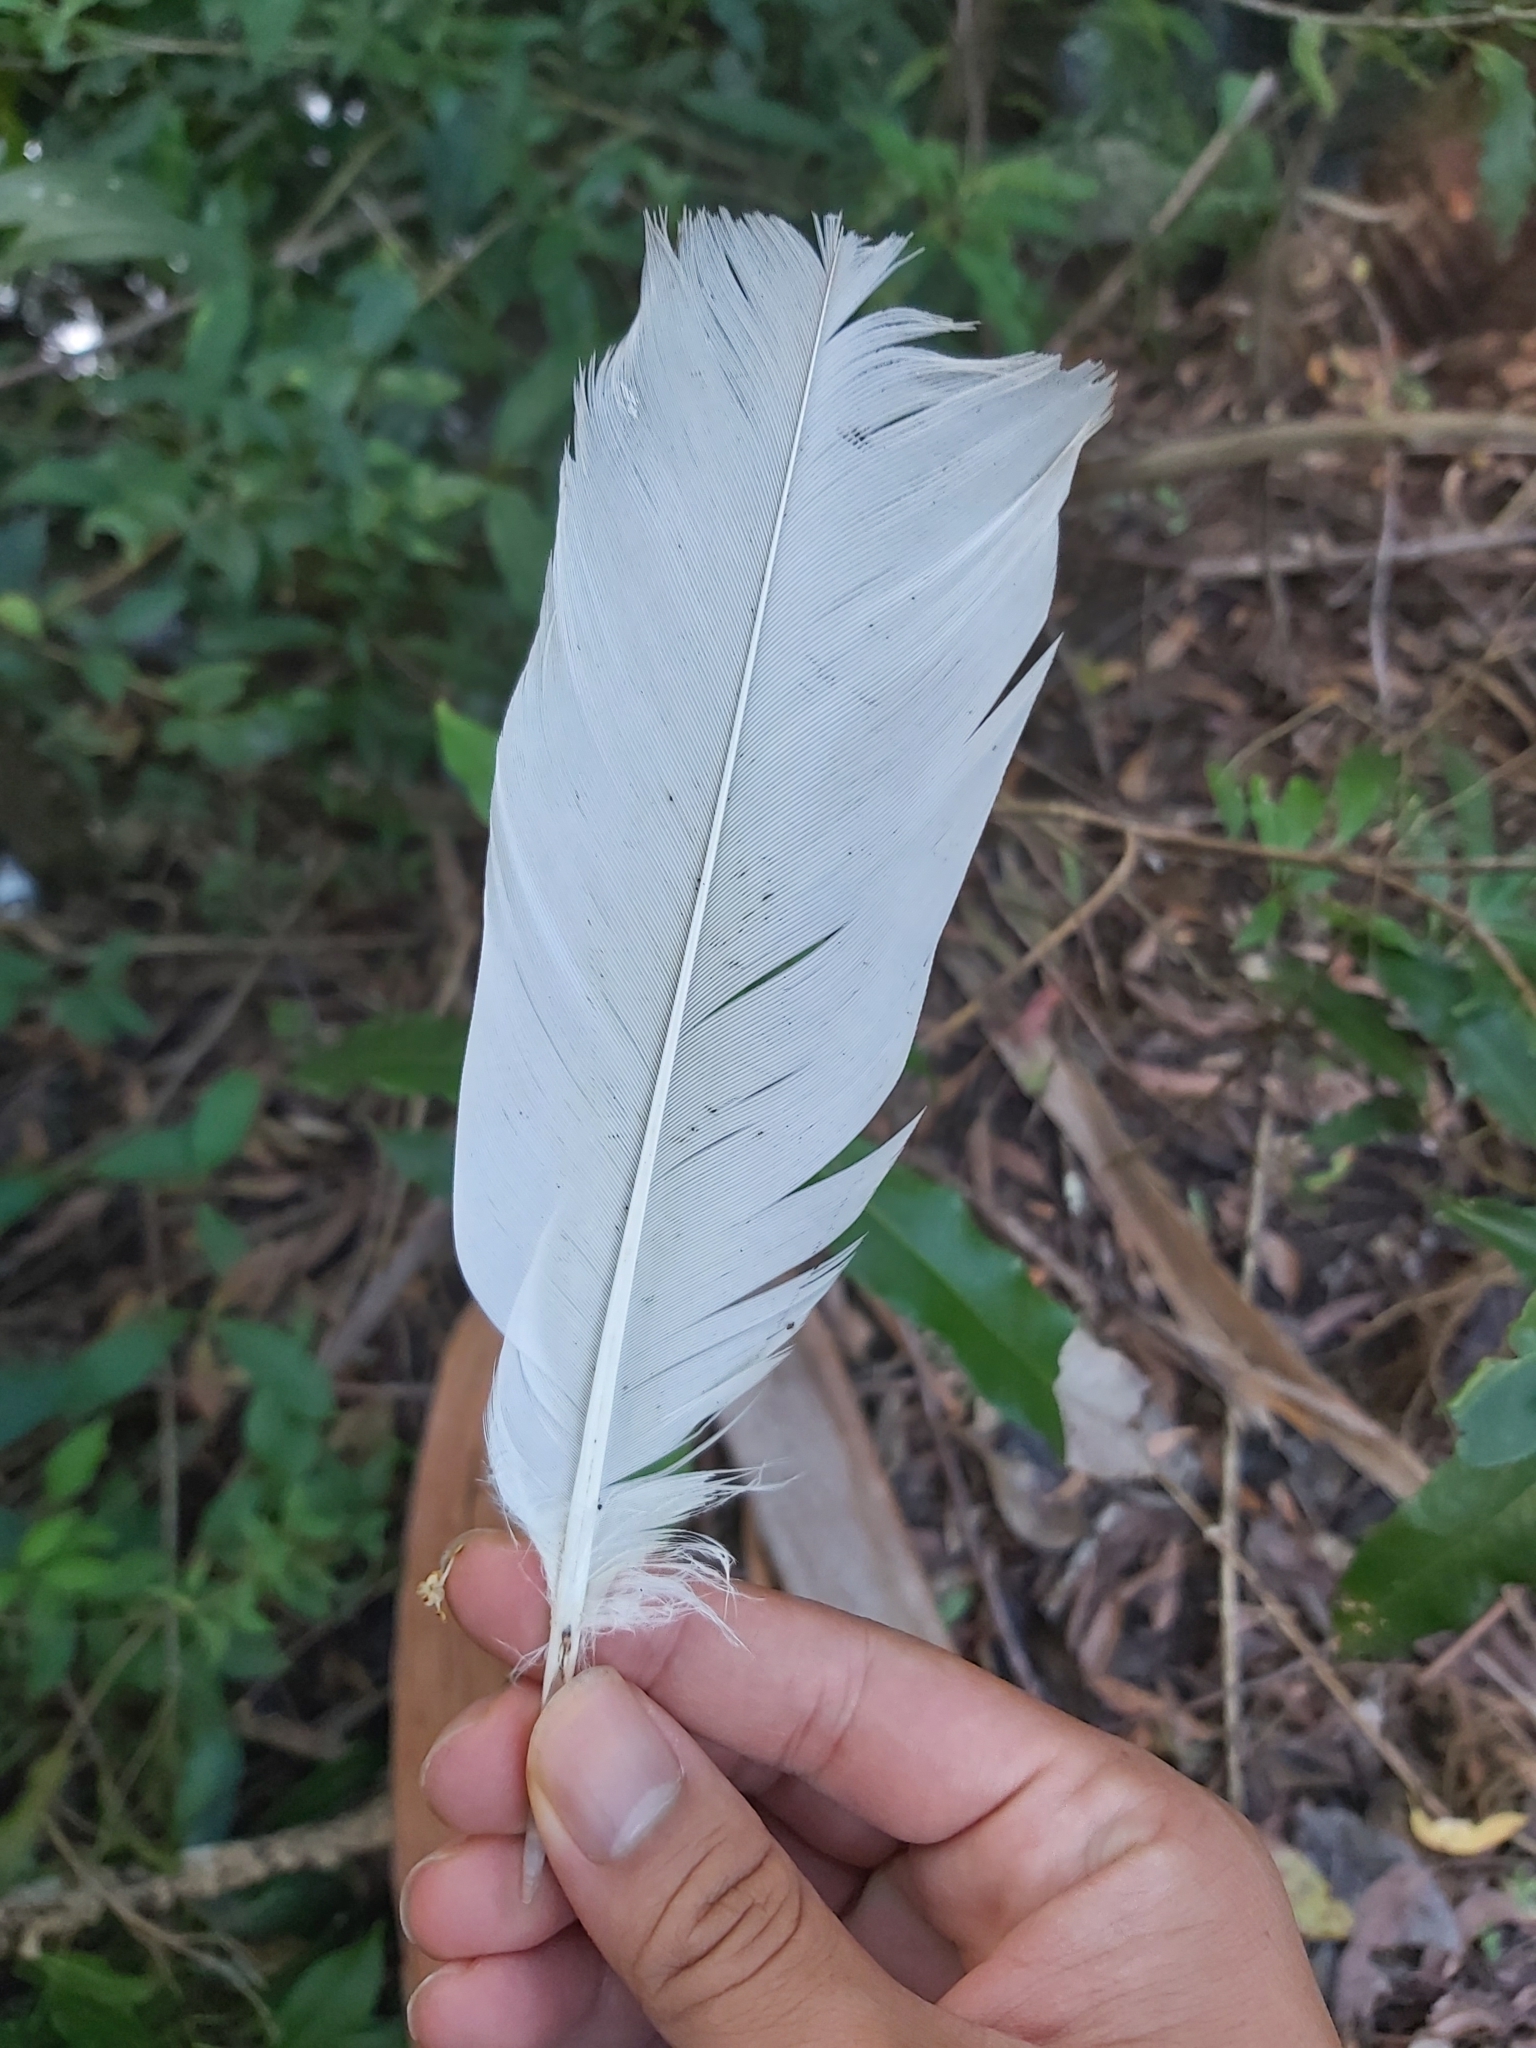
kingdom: Animalia
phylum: Chordata
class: Aves
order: Psittaciformes
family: Psittacidae
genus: Cacatua
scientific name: Cacatua galerita
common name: Sulphur-crested cockatoo
